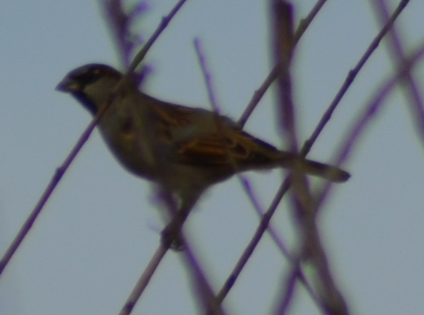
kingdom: Animalia
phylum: Chordata
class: Aves
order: Passeriformes
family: Passeridae
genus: Passer
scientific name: Passer domesticus
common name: House sparrow
